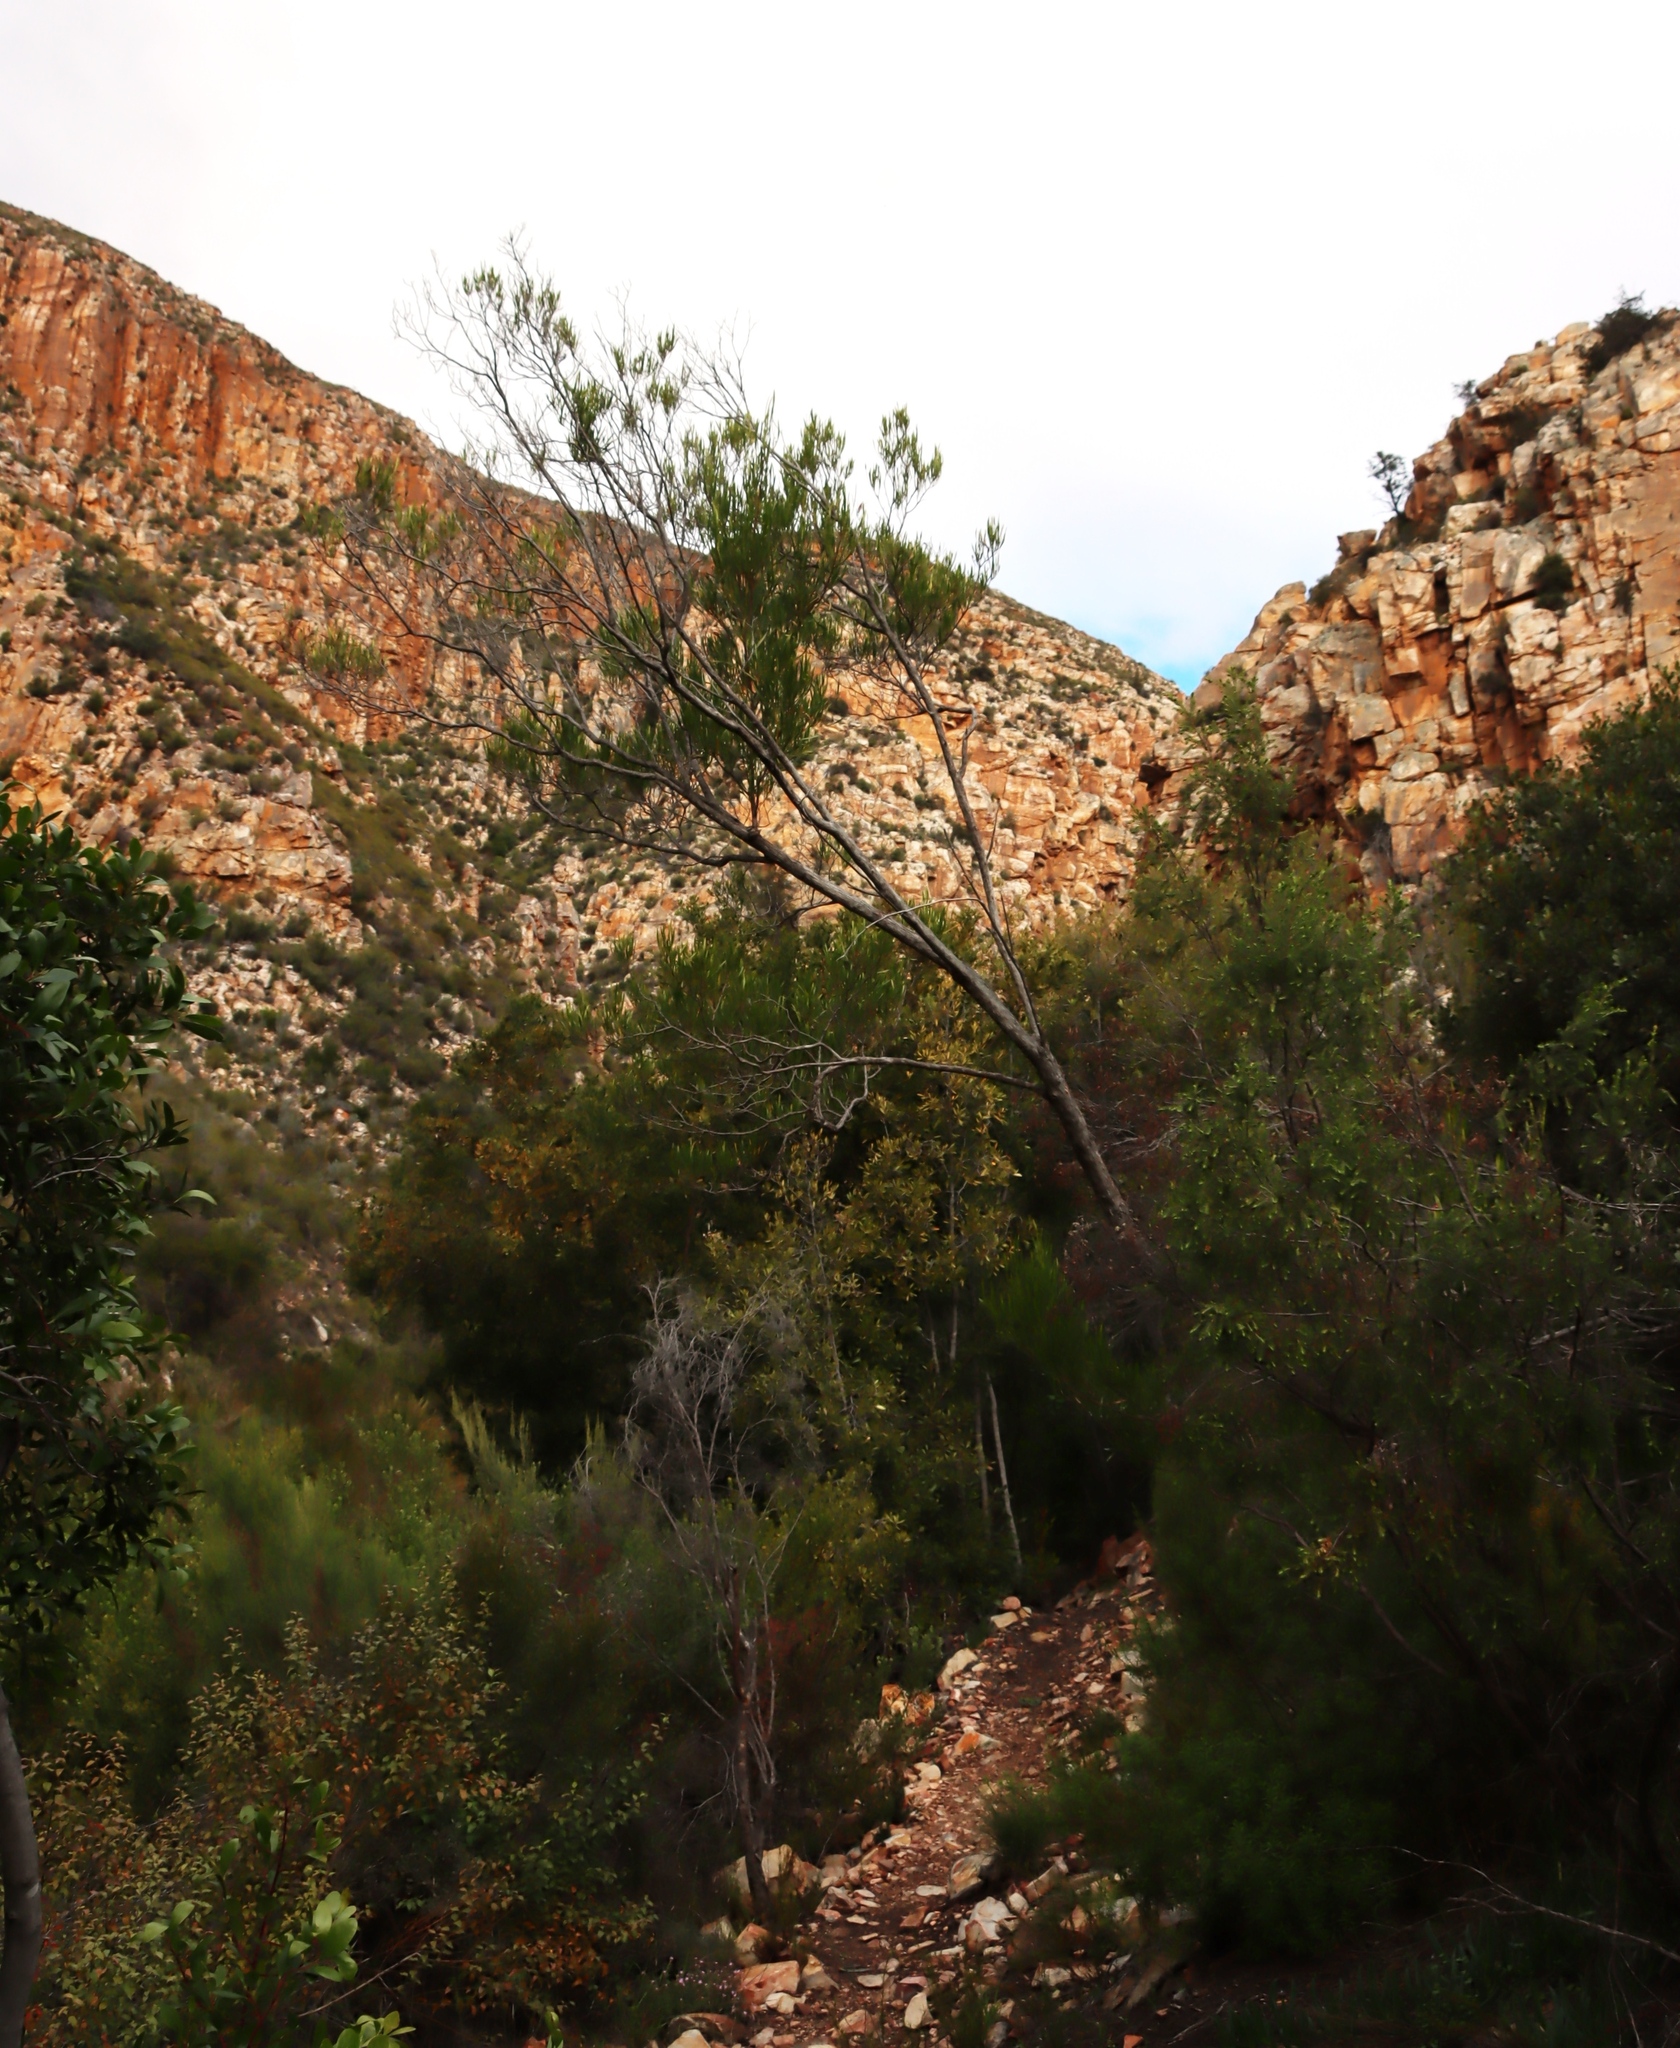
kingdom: Plantae
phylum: Tracheophyta
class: Magnoliopsida
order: Sapindales
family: Sapindaceae
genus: Dodonaea
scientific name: Dodonaea viscosa
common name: Hopbush
